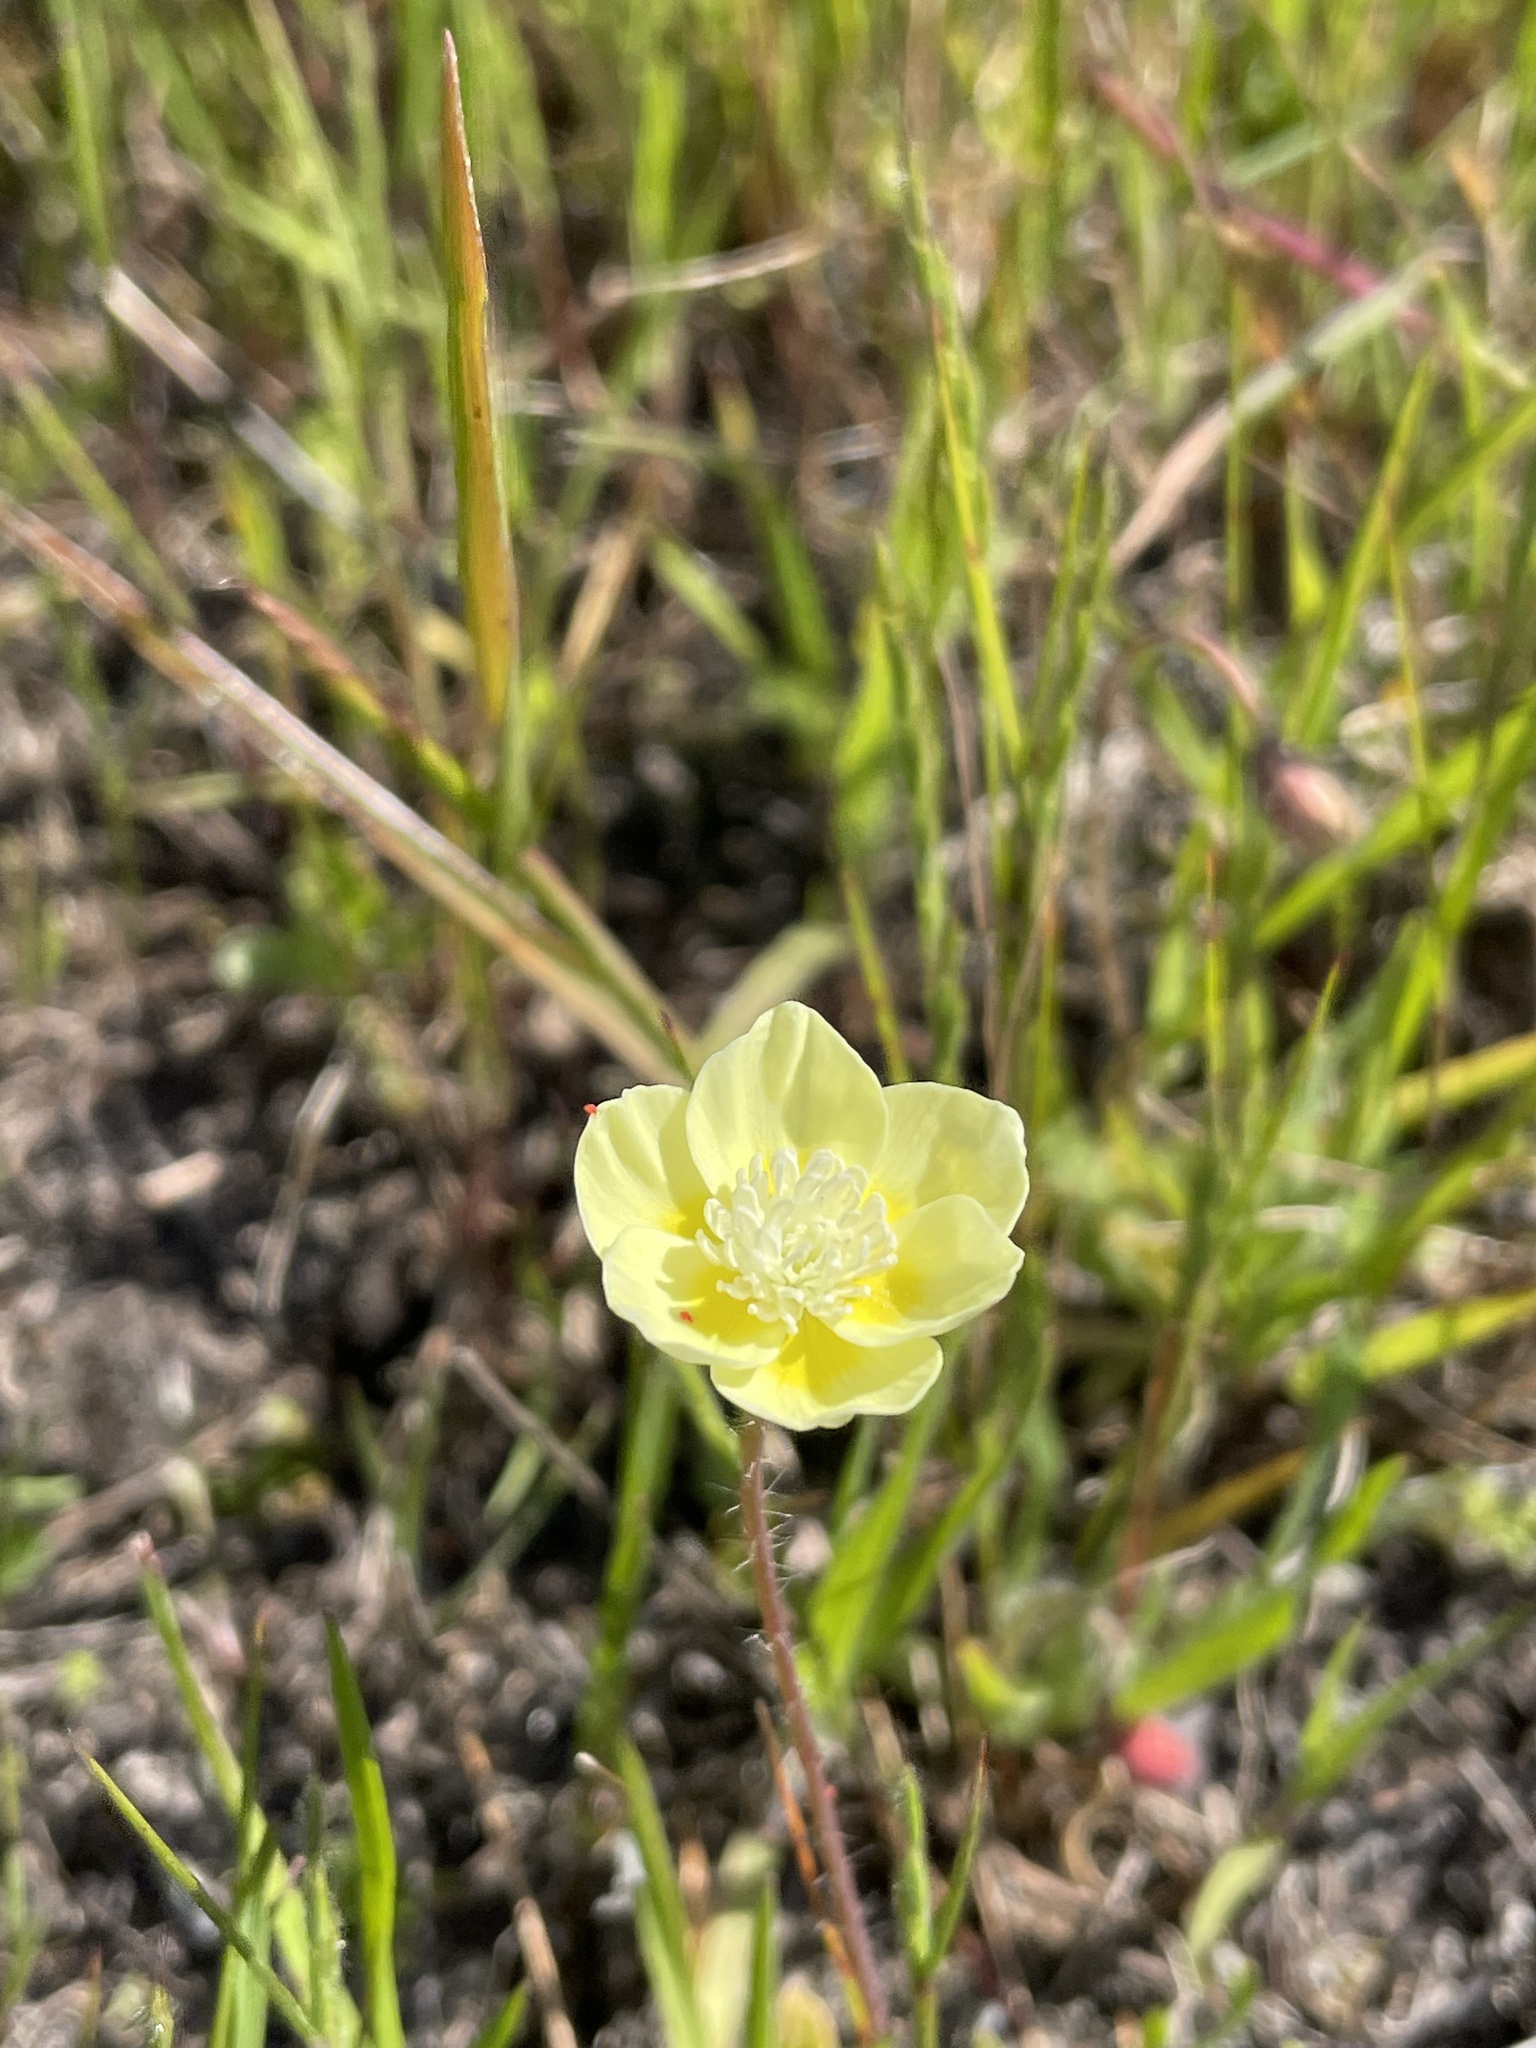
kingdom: Plantae
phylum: Tracheophyta
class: Magnoliopsida
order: Ranunculales
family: Papaveraceae
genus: Platystemon
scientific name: Platystemon californicus
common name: Cream-cups
